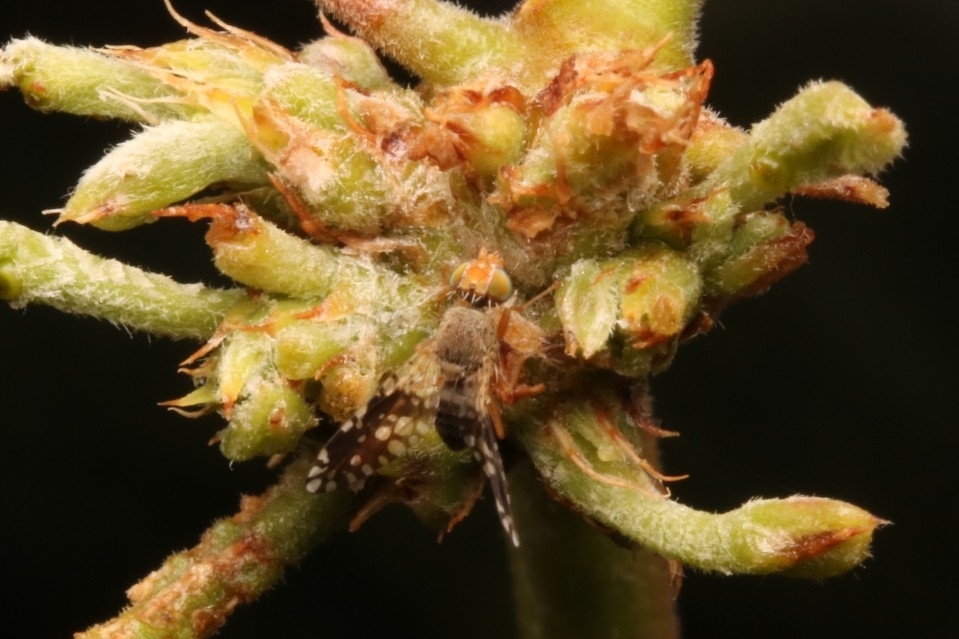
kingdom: Animalia
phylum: Arthropoda
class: Insecta
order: Diptera
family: Tephritidae
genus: Dyseuaresta
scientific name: Dyseuaresta mexicana
